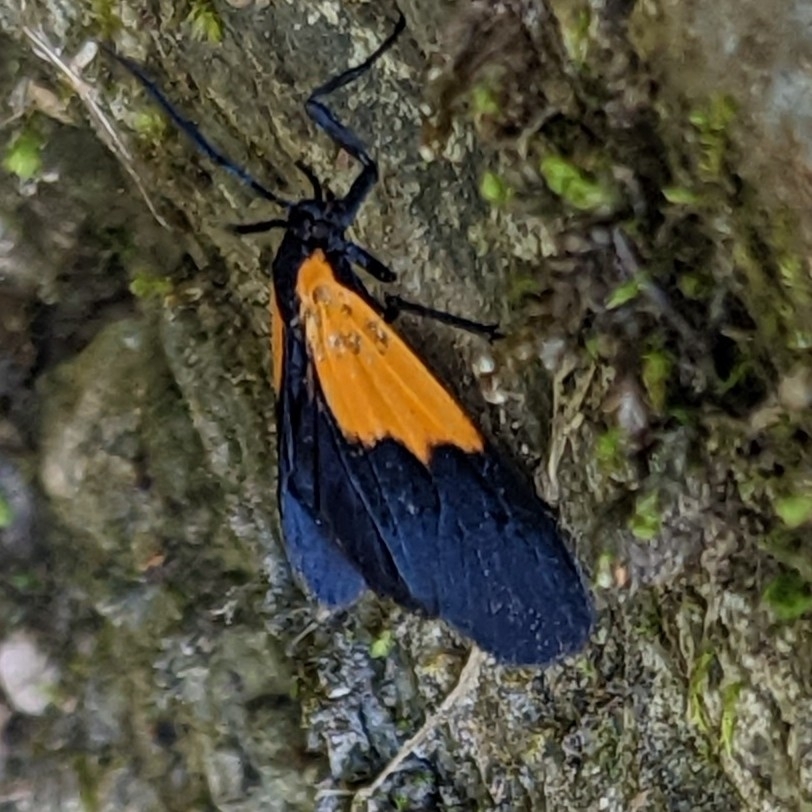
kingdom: Animalia
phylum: Arthropoda
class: Insecta
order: Lepidoptera
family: Erebidae
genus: Lycomorpha
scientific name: Lycomorpha pholus
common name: Black-and-yellow lichen moth
